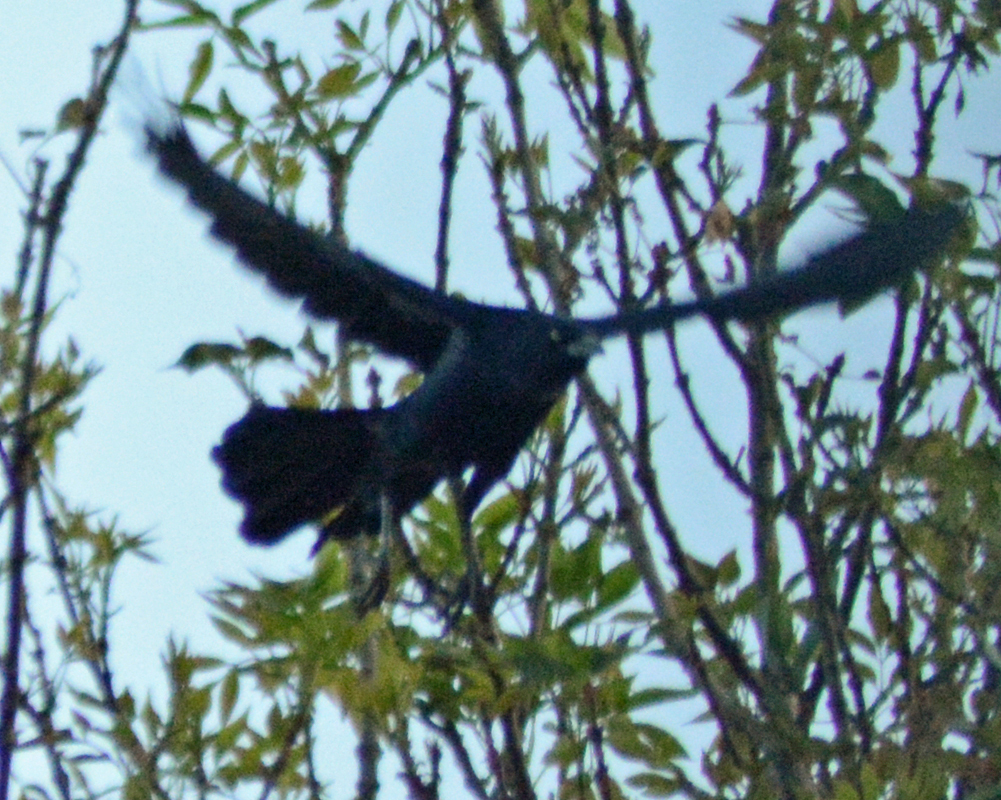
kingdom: Animalia
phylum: Chordata
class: Aves
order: Passeriformes
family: Icteridae
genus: Quiscalus
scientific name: Quiscalus mexicanus
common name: Great-tailed grackle
